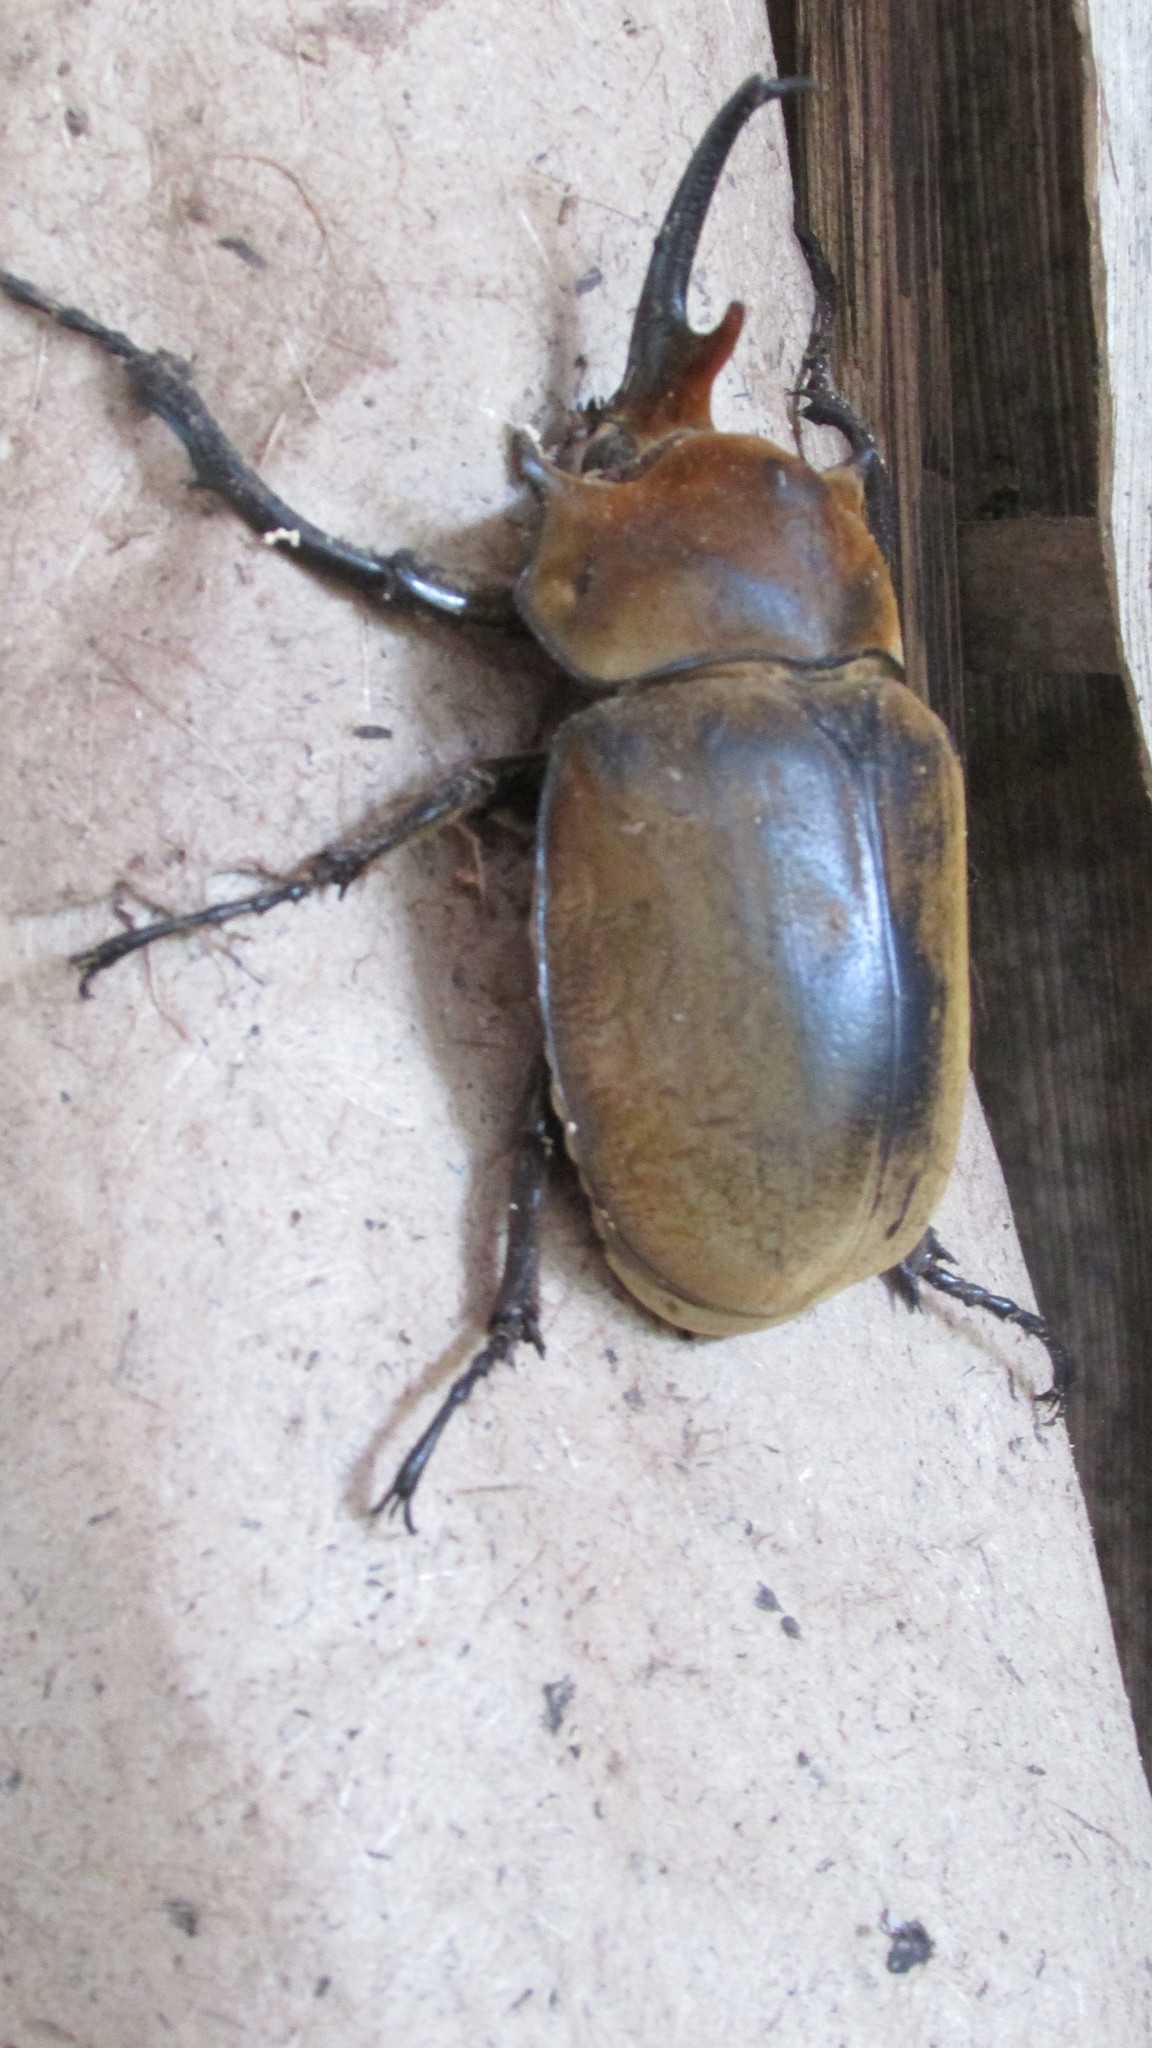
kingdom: Animalia
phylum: Arthropoda
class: Insecta
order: Coleoptera
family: Scarabaeidae
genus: Megasoma
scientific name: Megasoma elephas
